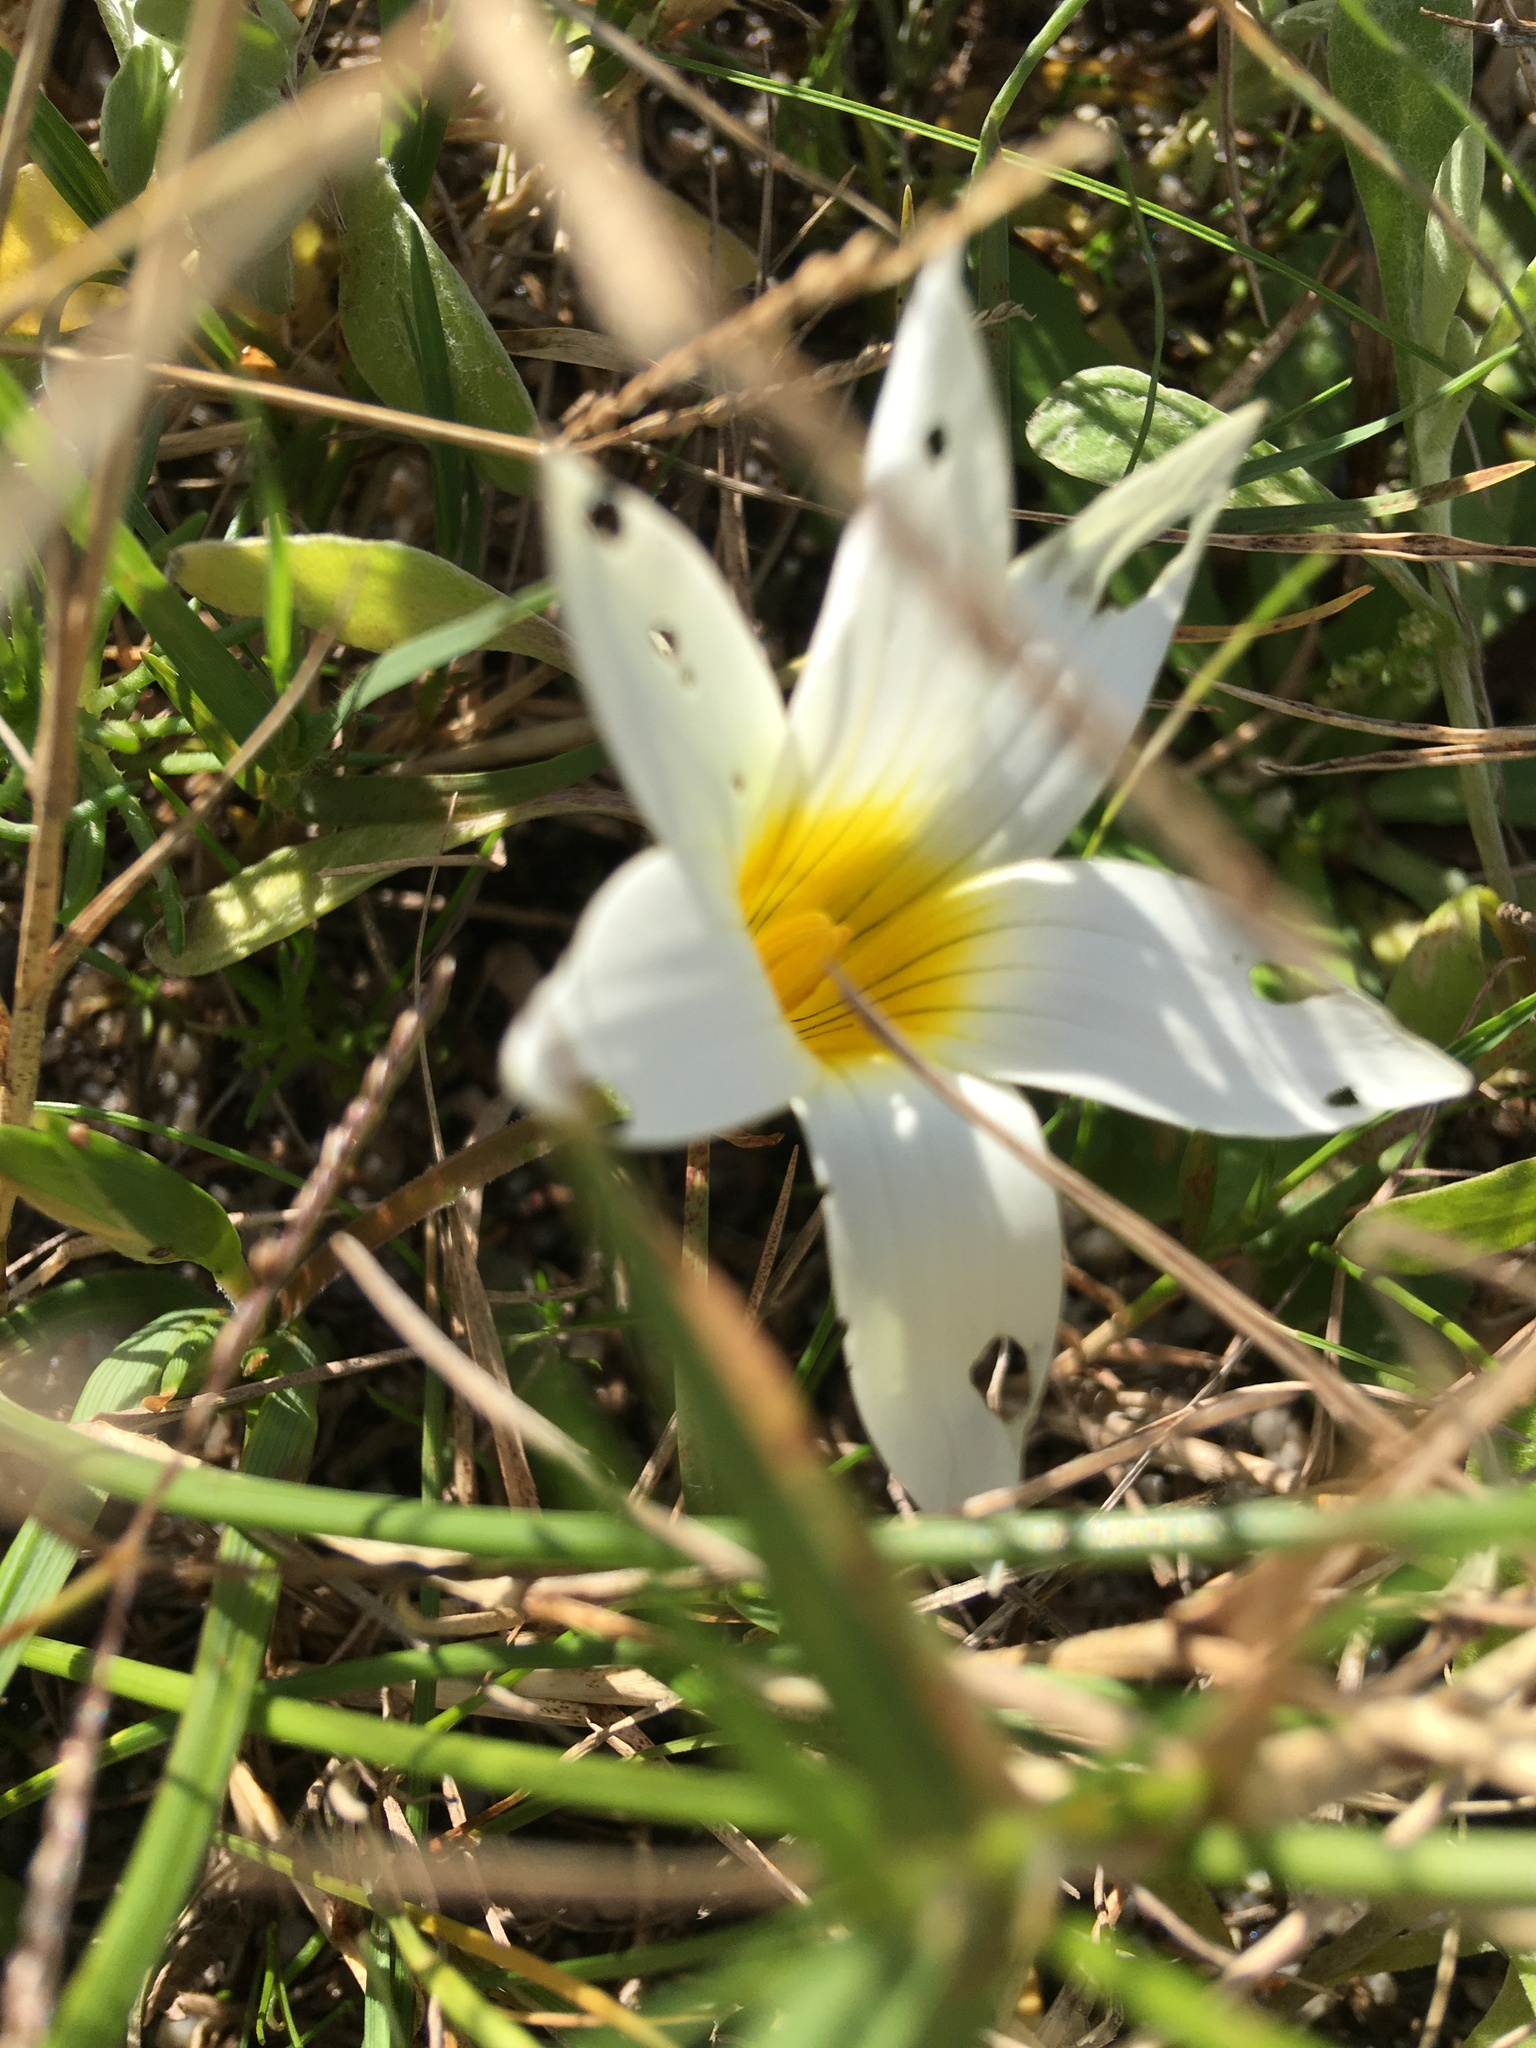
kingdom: Plantae
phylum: Tracheophyta
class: Liliopsida
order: Asparagales
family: Iridaceae
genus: Romulea
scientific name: Romulea flava
